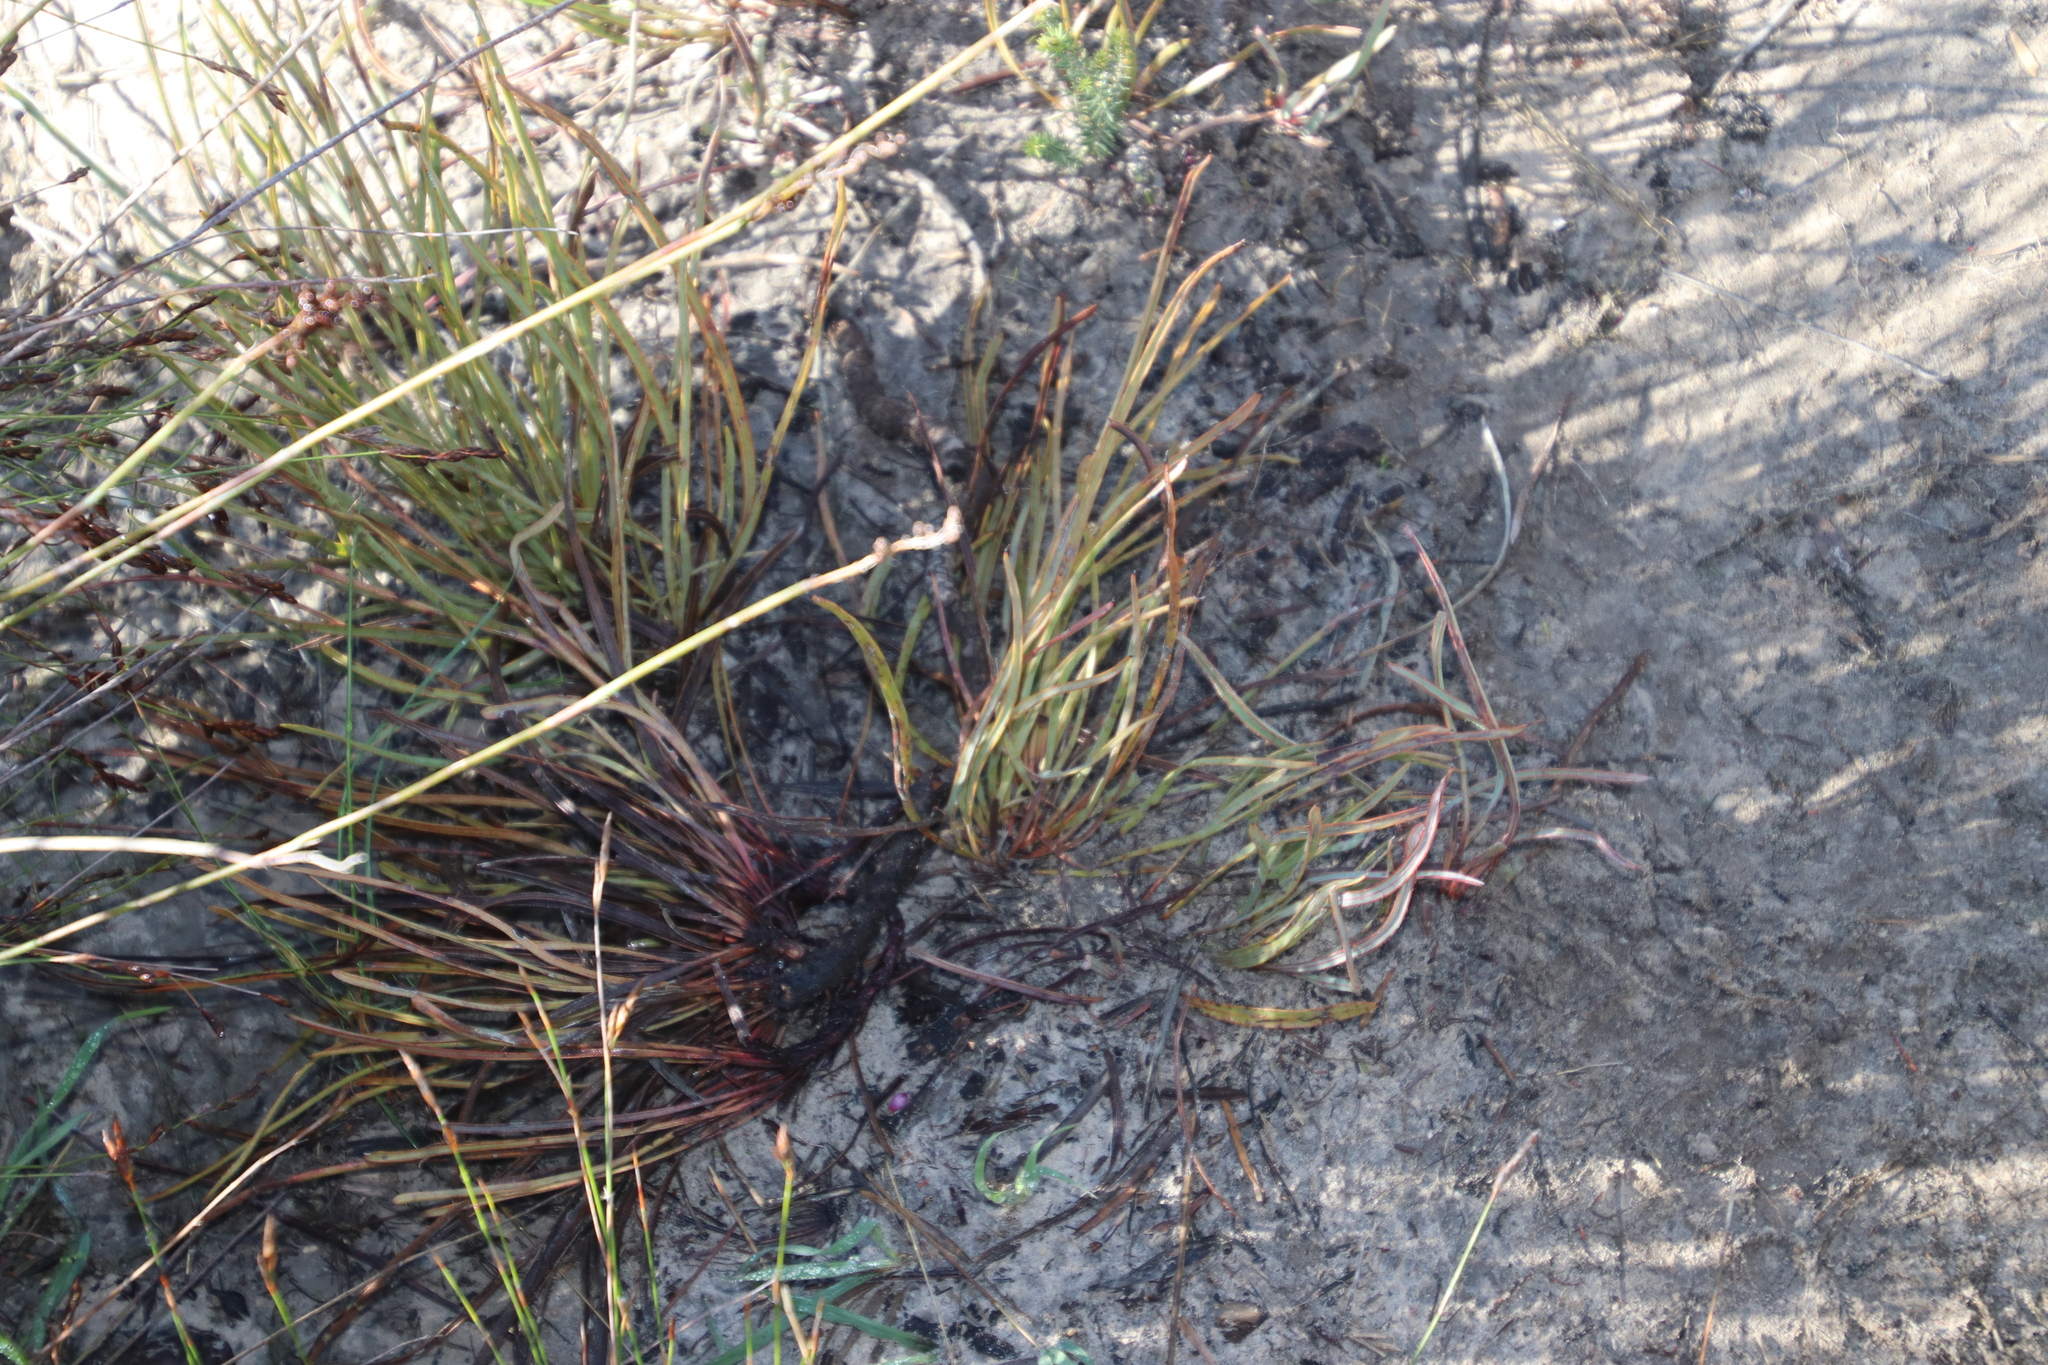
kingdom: Plantae
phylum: Tracheophyta
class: Magnoliopsida
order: Proteales
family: Proteaceae
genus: Protea
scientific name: Protea piscina
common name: Visgat sugarbush
